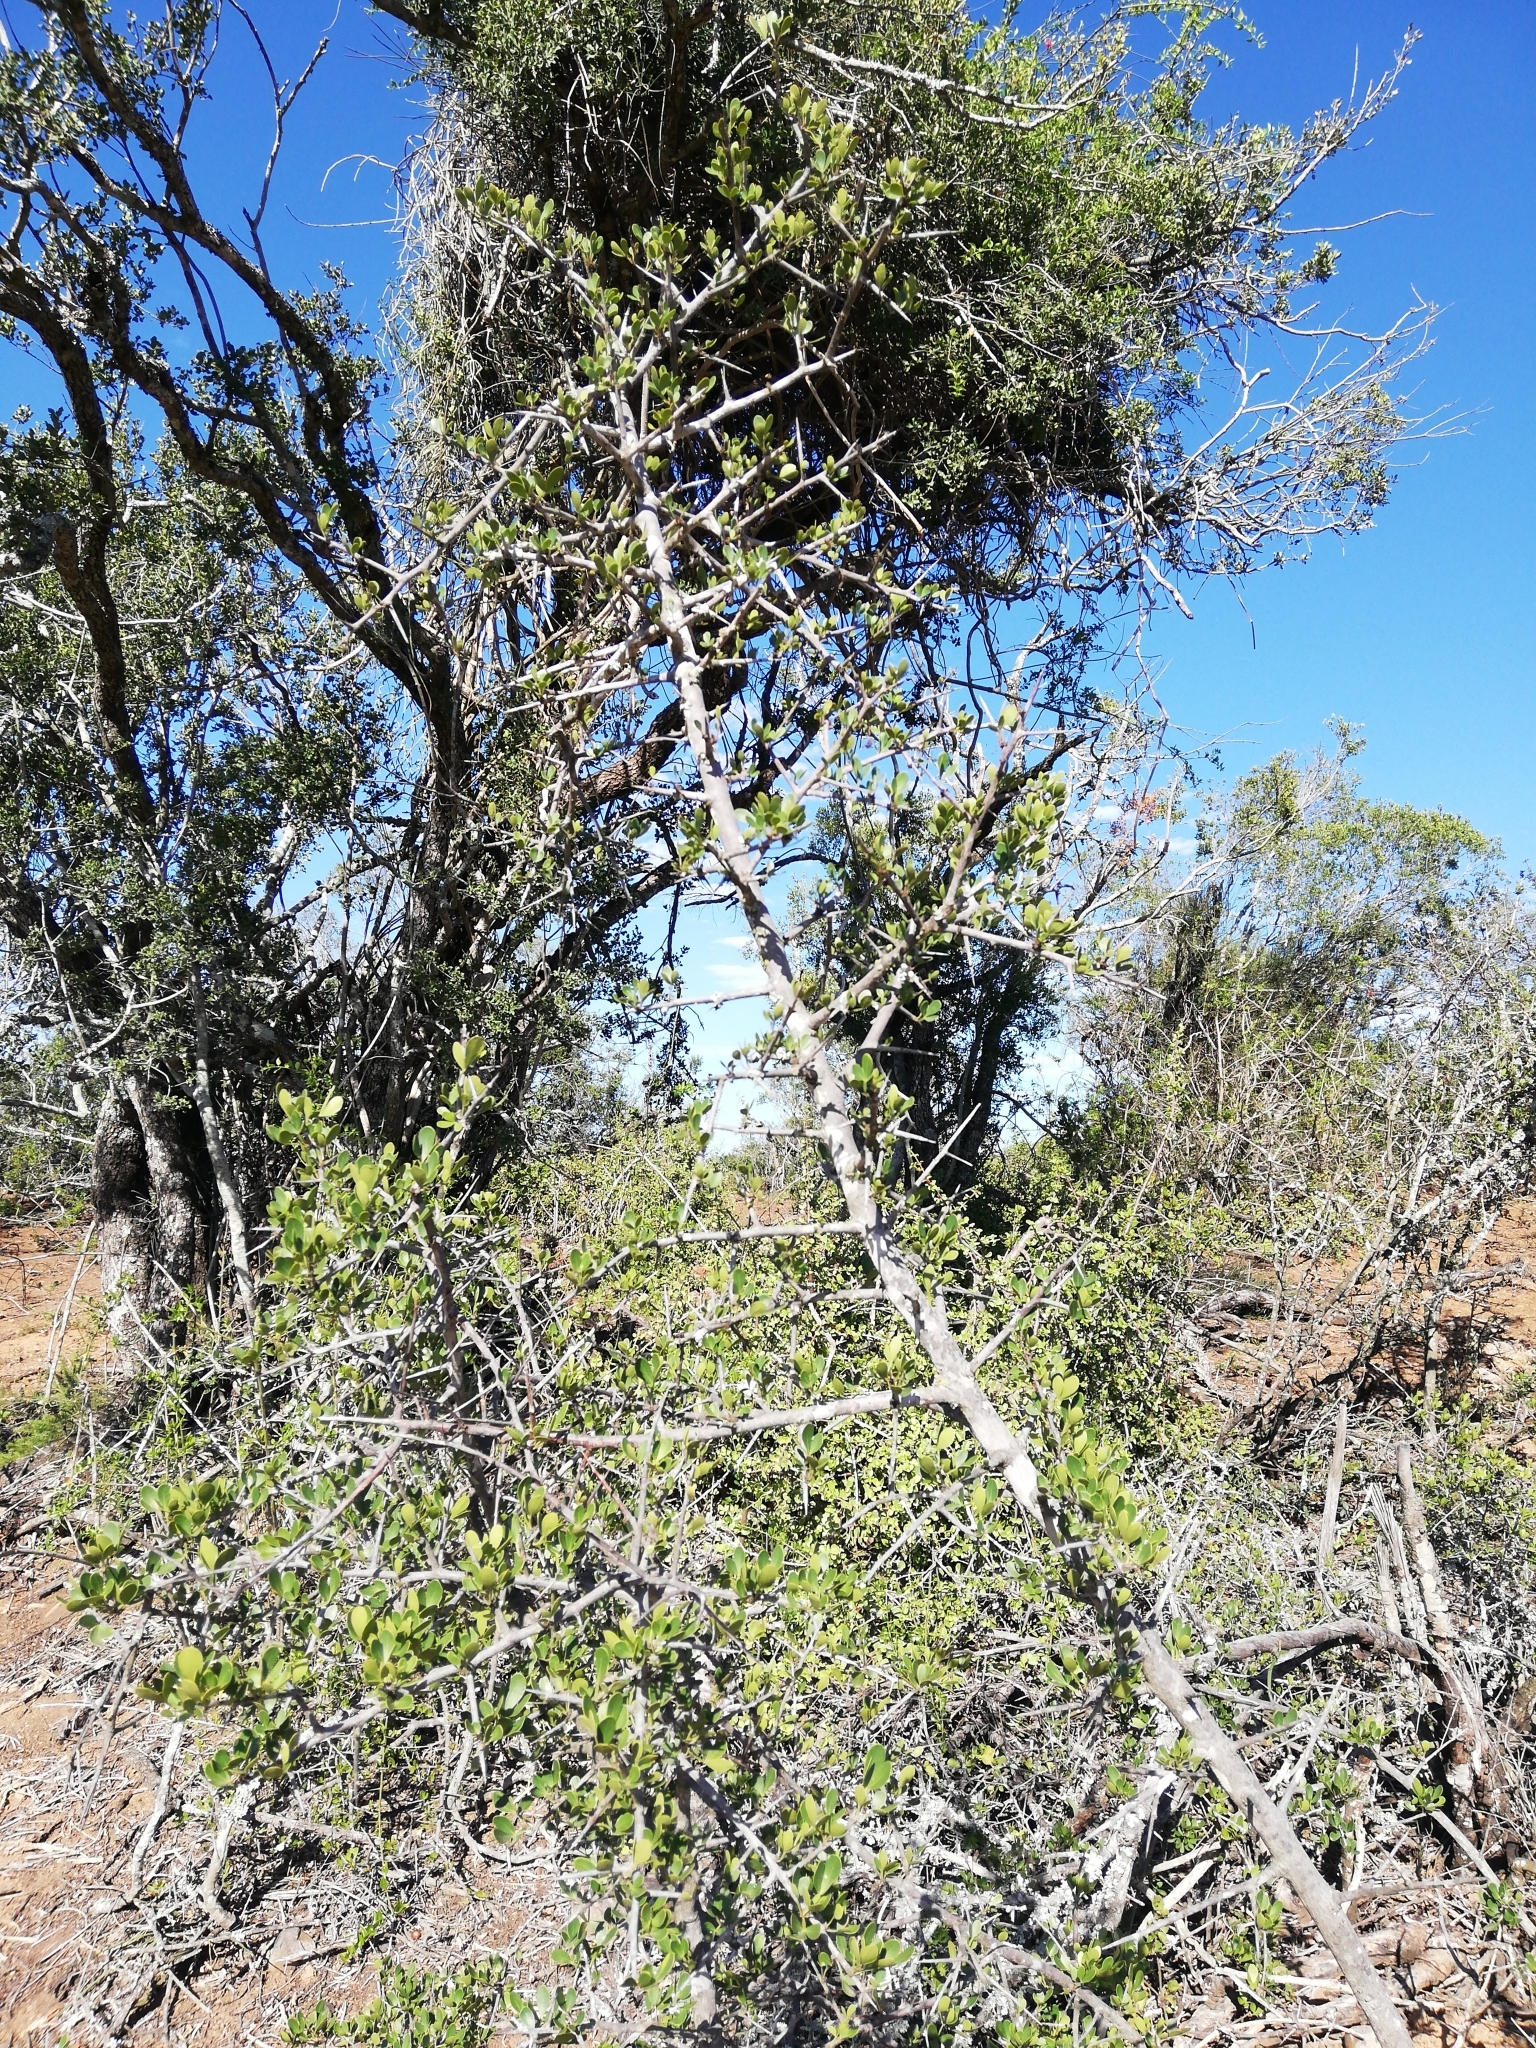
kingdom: Plantae
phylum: Tracheophyta
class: Magnoliopsida
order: Sapindales
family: Anacardiaceae
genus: Searsia
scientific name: Searsia pterota
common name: Winged currant
